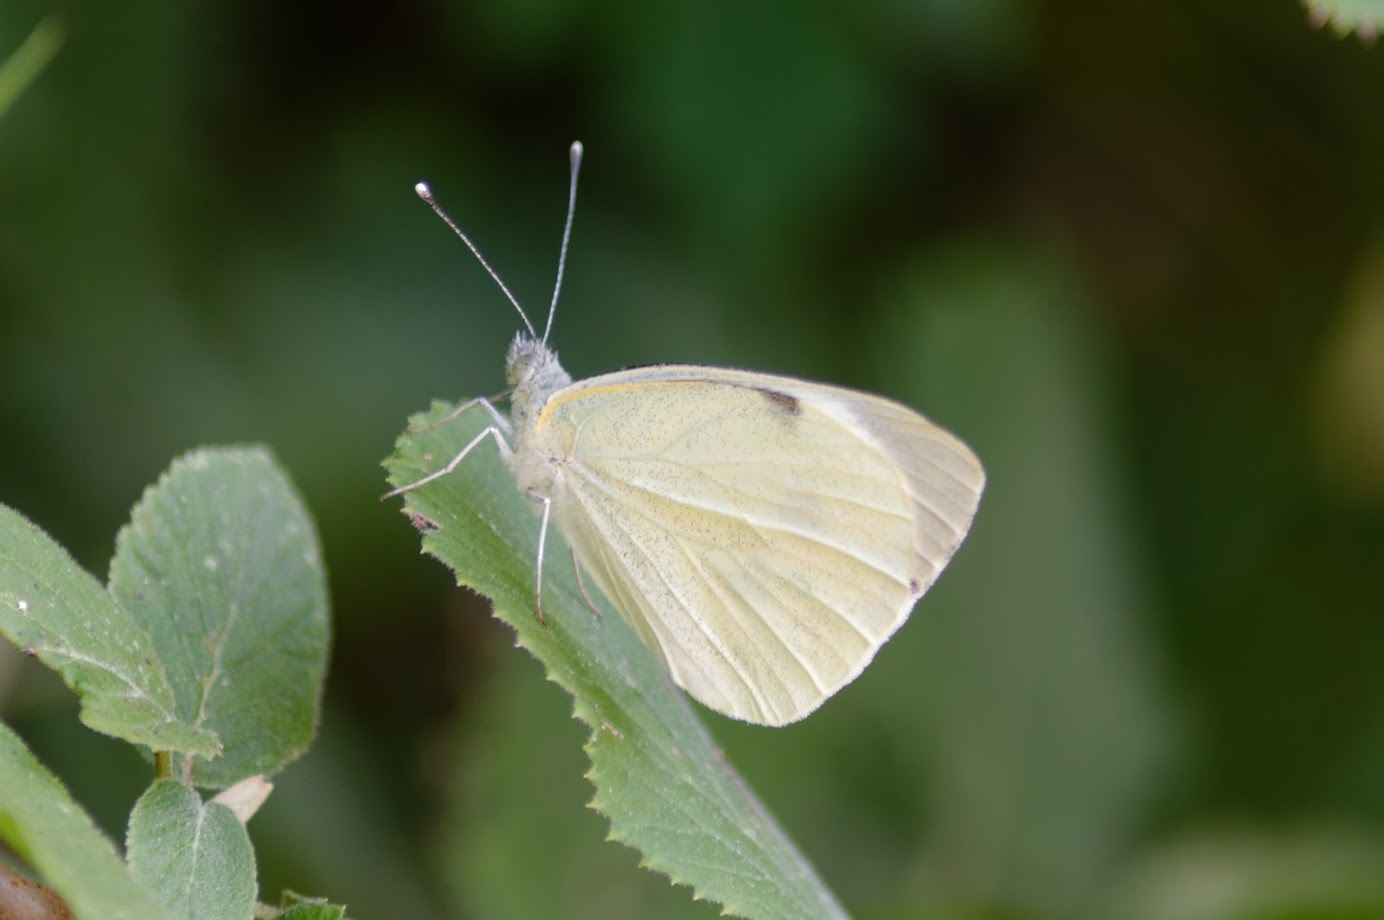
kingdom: Animalia
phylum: Arthropoda
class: Insecta
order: Lepidoptera
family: Pieridae
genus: Pieris
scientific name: Pieris brassicae
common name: Large white
